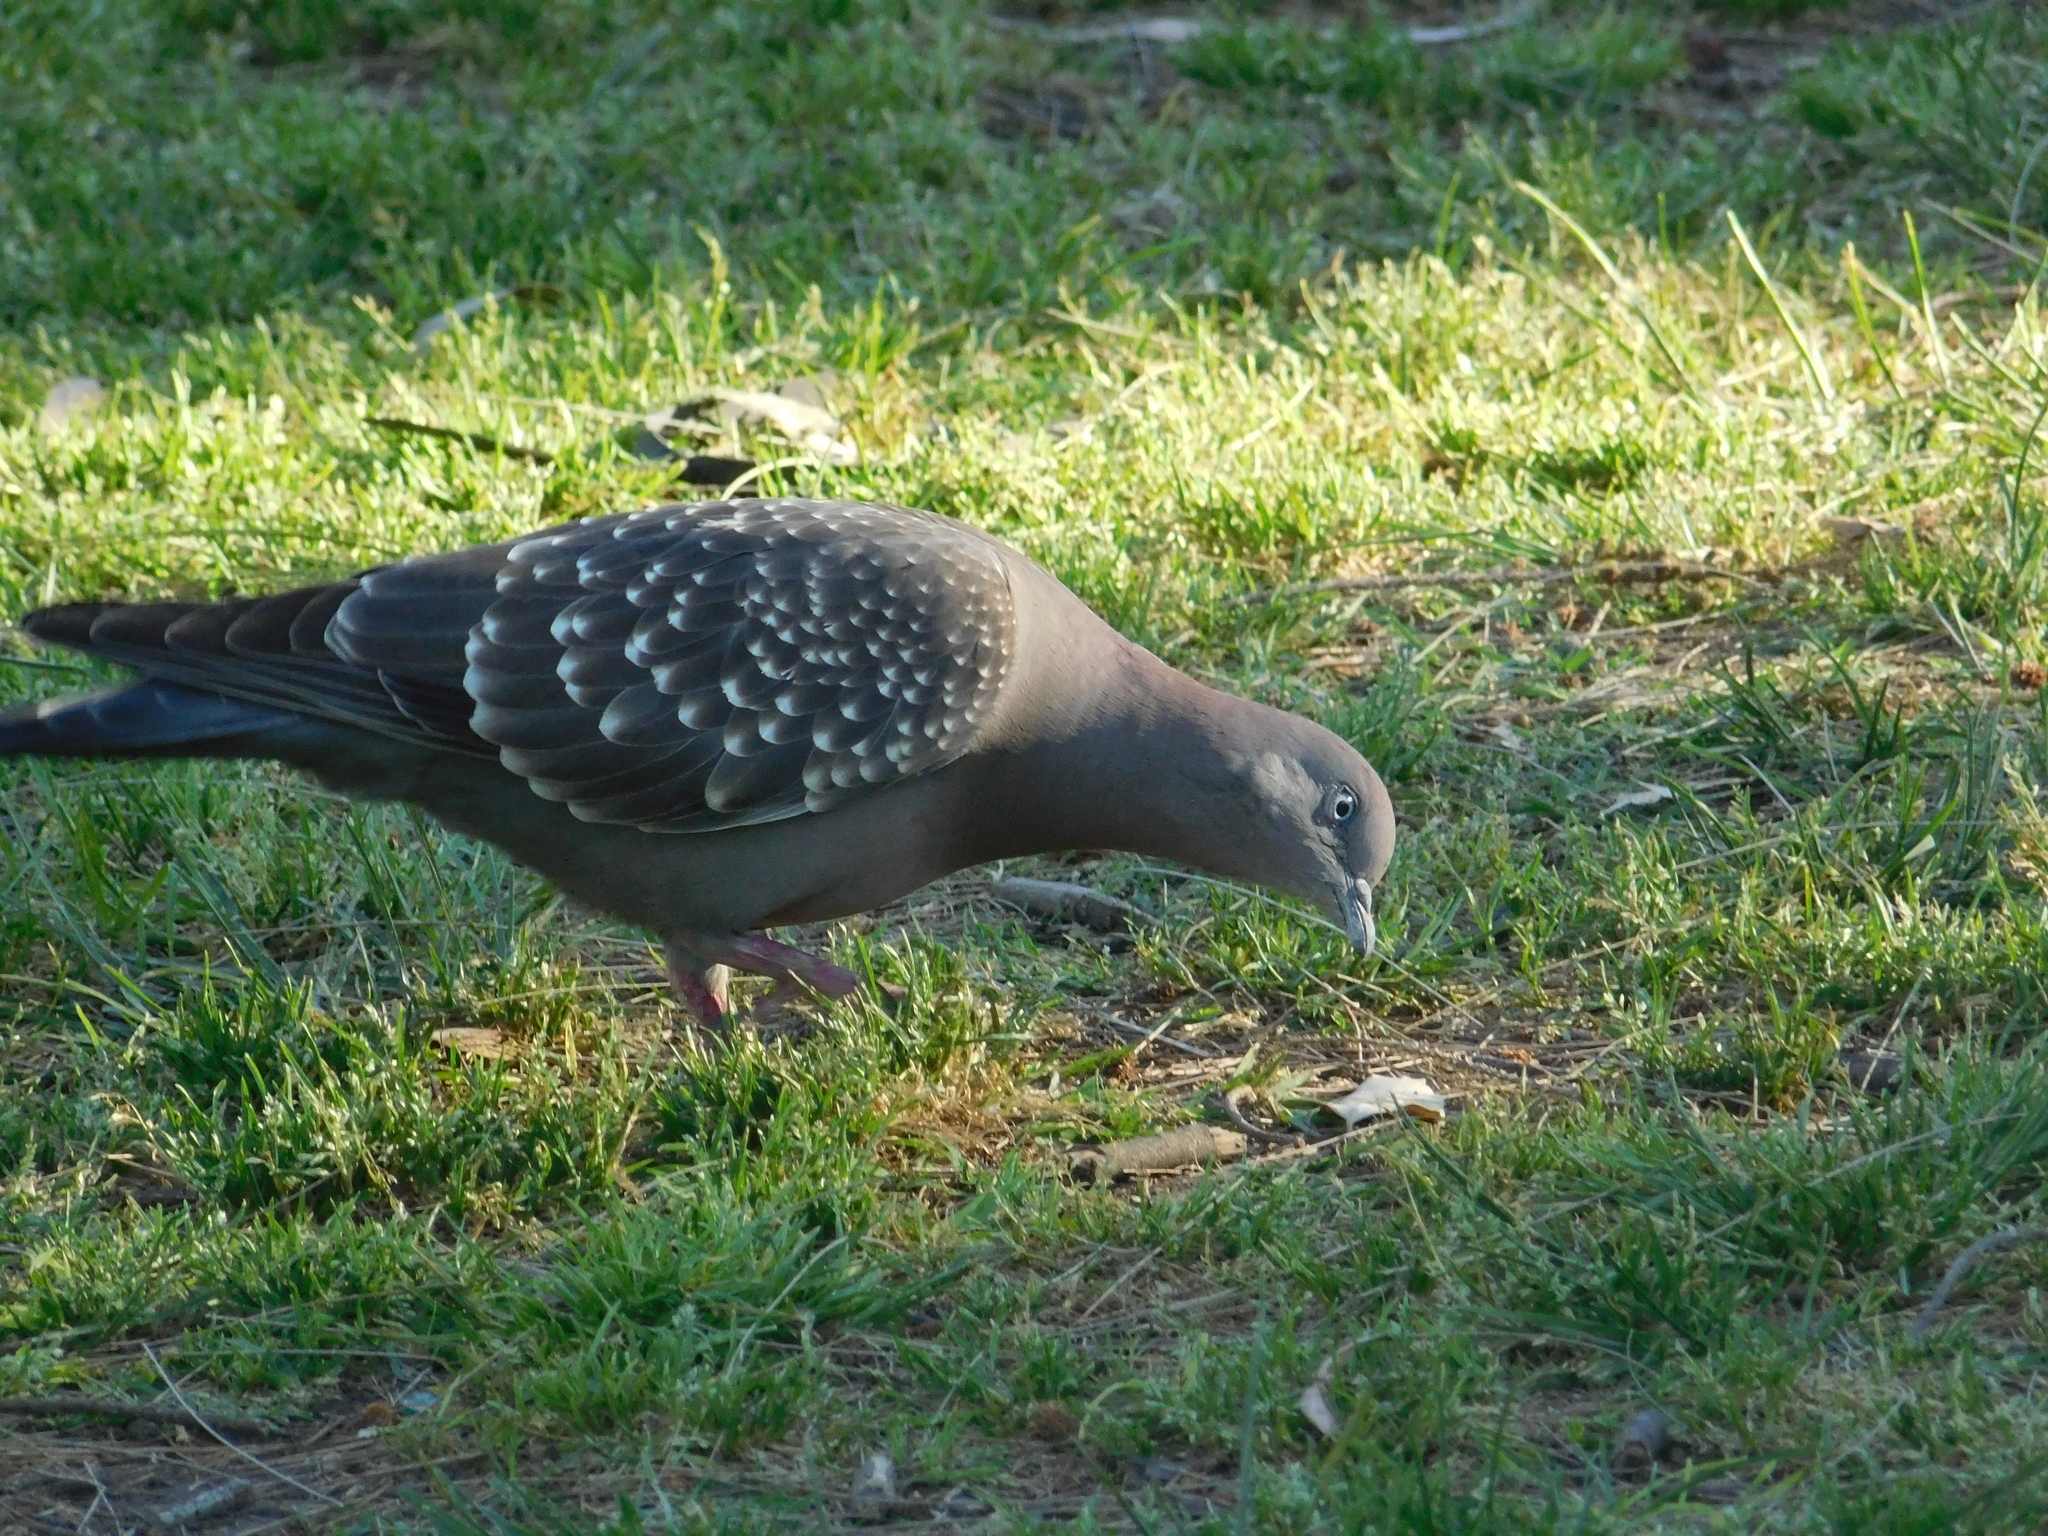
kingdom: Animalia
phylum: Chordata
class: Aves
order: Columbiformes
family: Columbidae
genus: Patagioenas
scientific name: Patagioenas maculosa
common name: Spot-winged pigeon
